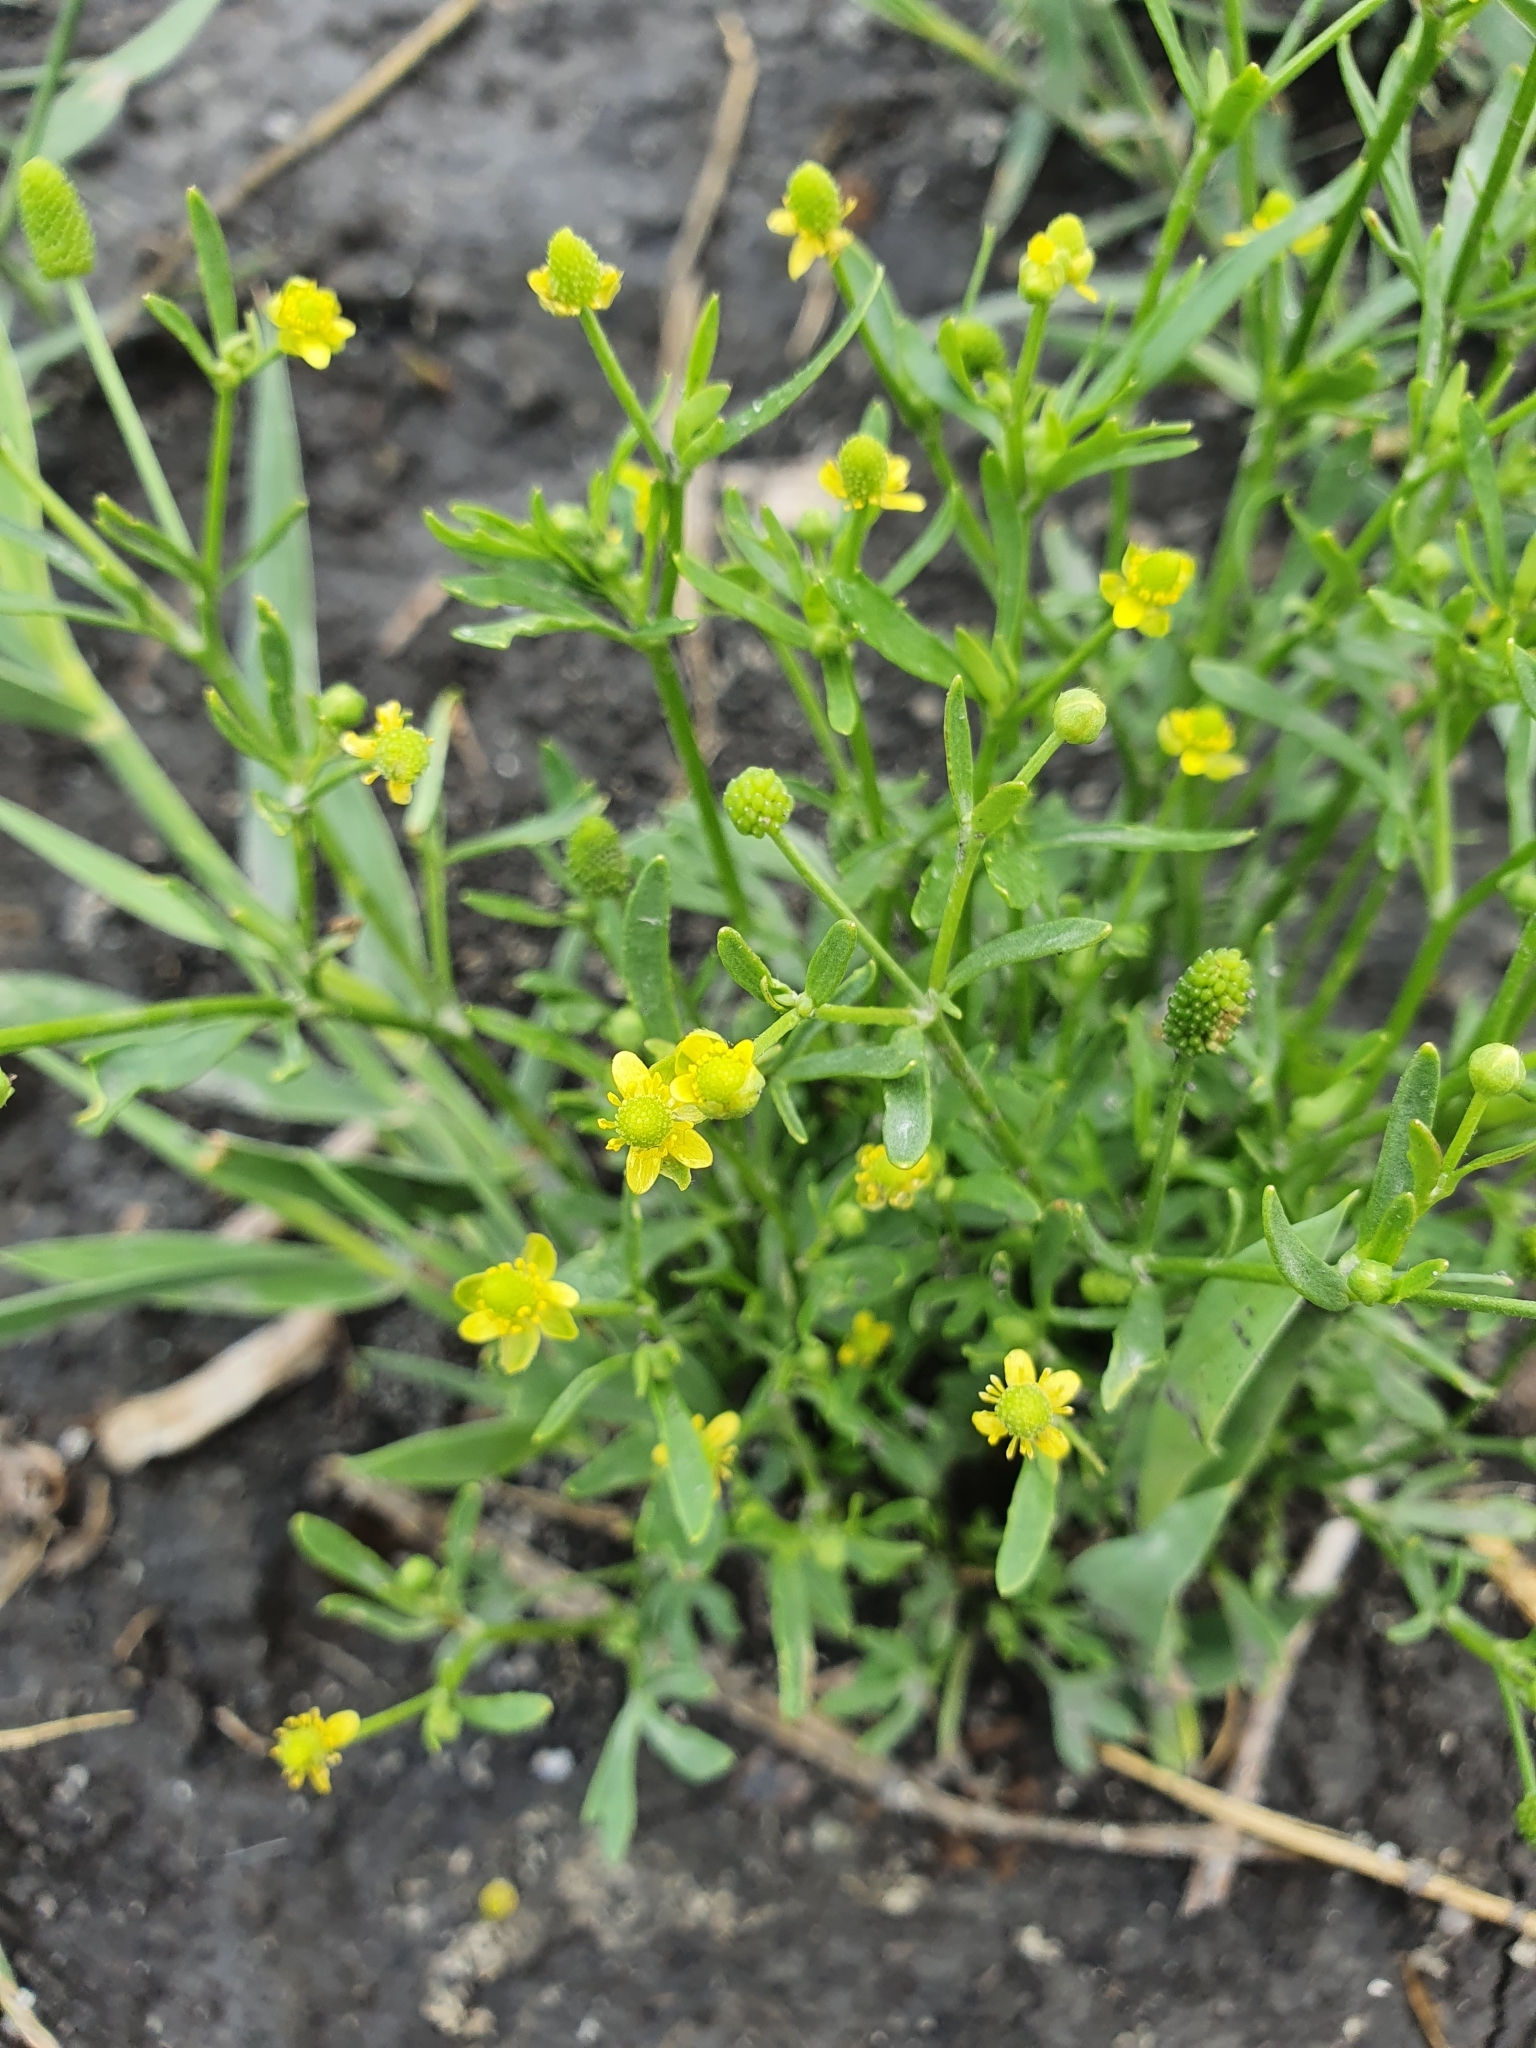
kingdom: Plantae
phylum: Tracheophyta
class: Magnoliopsida
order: Ranunculales
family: Ranunculaceae
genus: Ranunculus
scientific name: Ranunculus sceleratus
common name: Celery-leaved buttercup
